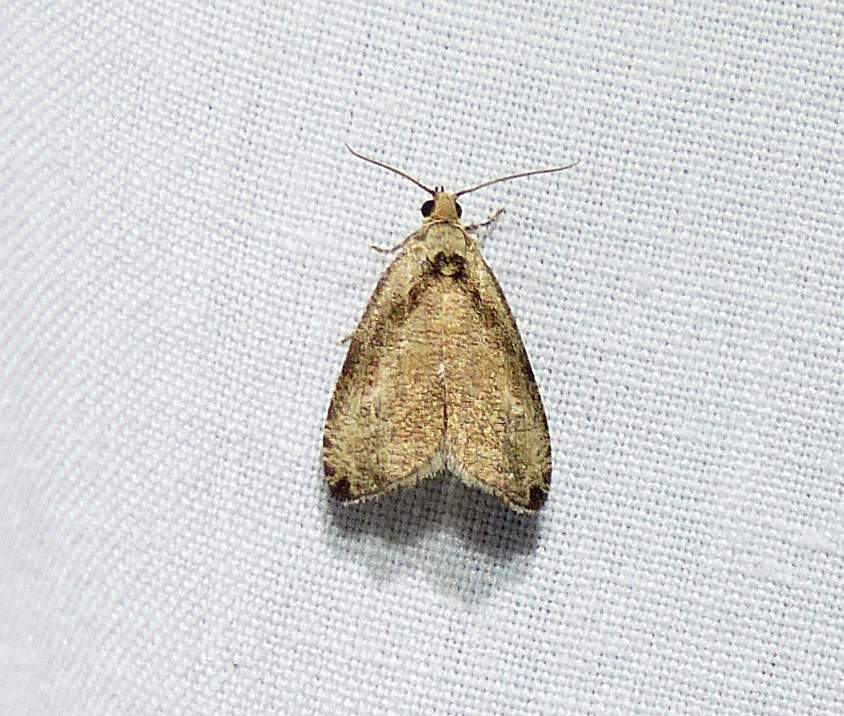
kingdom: Animalia
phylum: Arthropoda
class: Insecta
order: Lepidoptera
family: Tortricidae
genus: Olethreutes
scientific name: Olethreutes exoletum
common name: Wretched olethreutes moth
